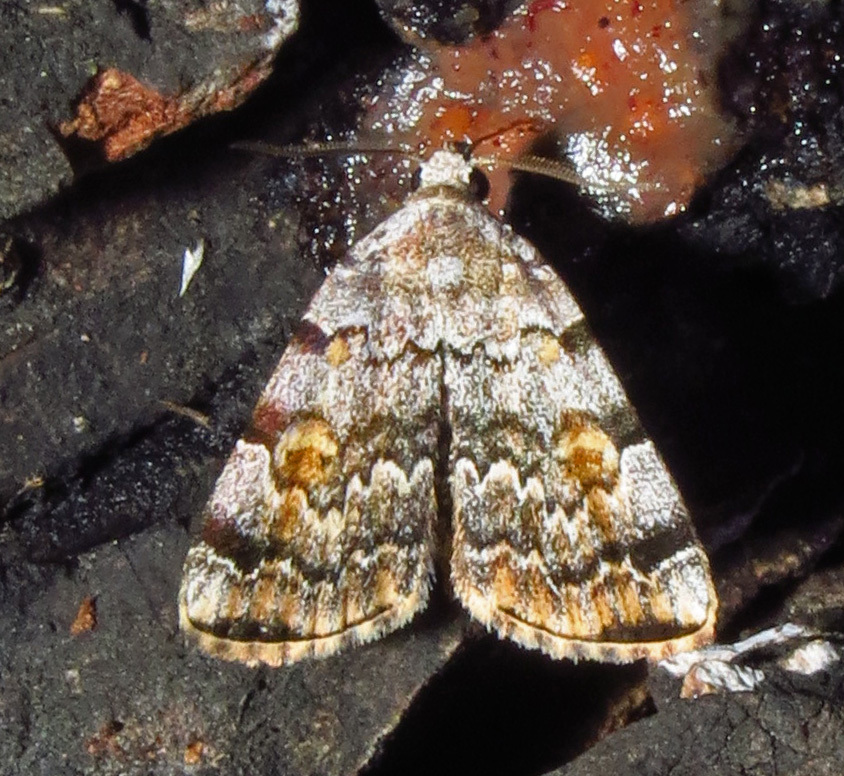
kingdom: Animalia
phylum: Arthropoda
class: Insecta
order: Lepidoptera
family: Erebidae
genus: Idia
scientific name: Idia americalis
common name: American idia moth
